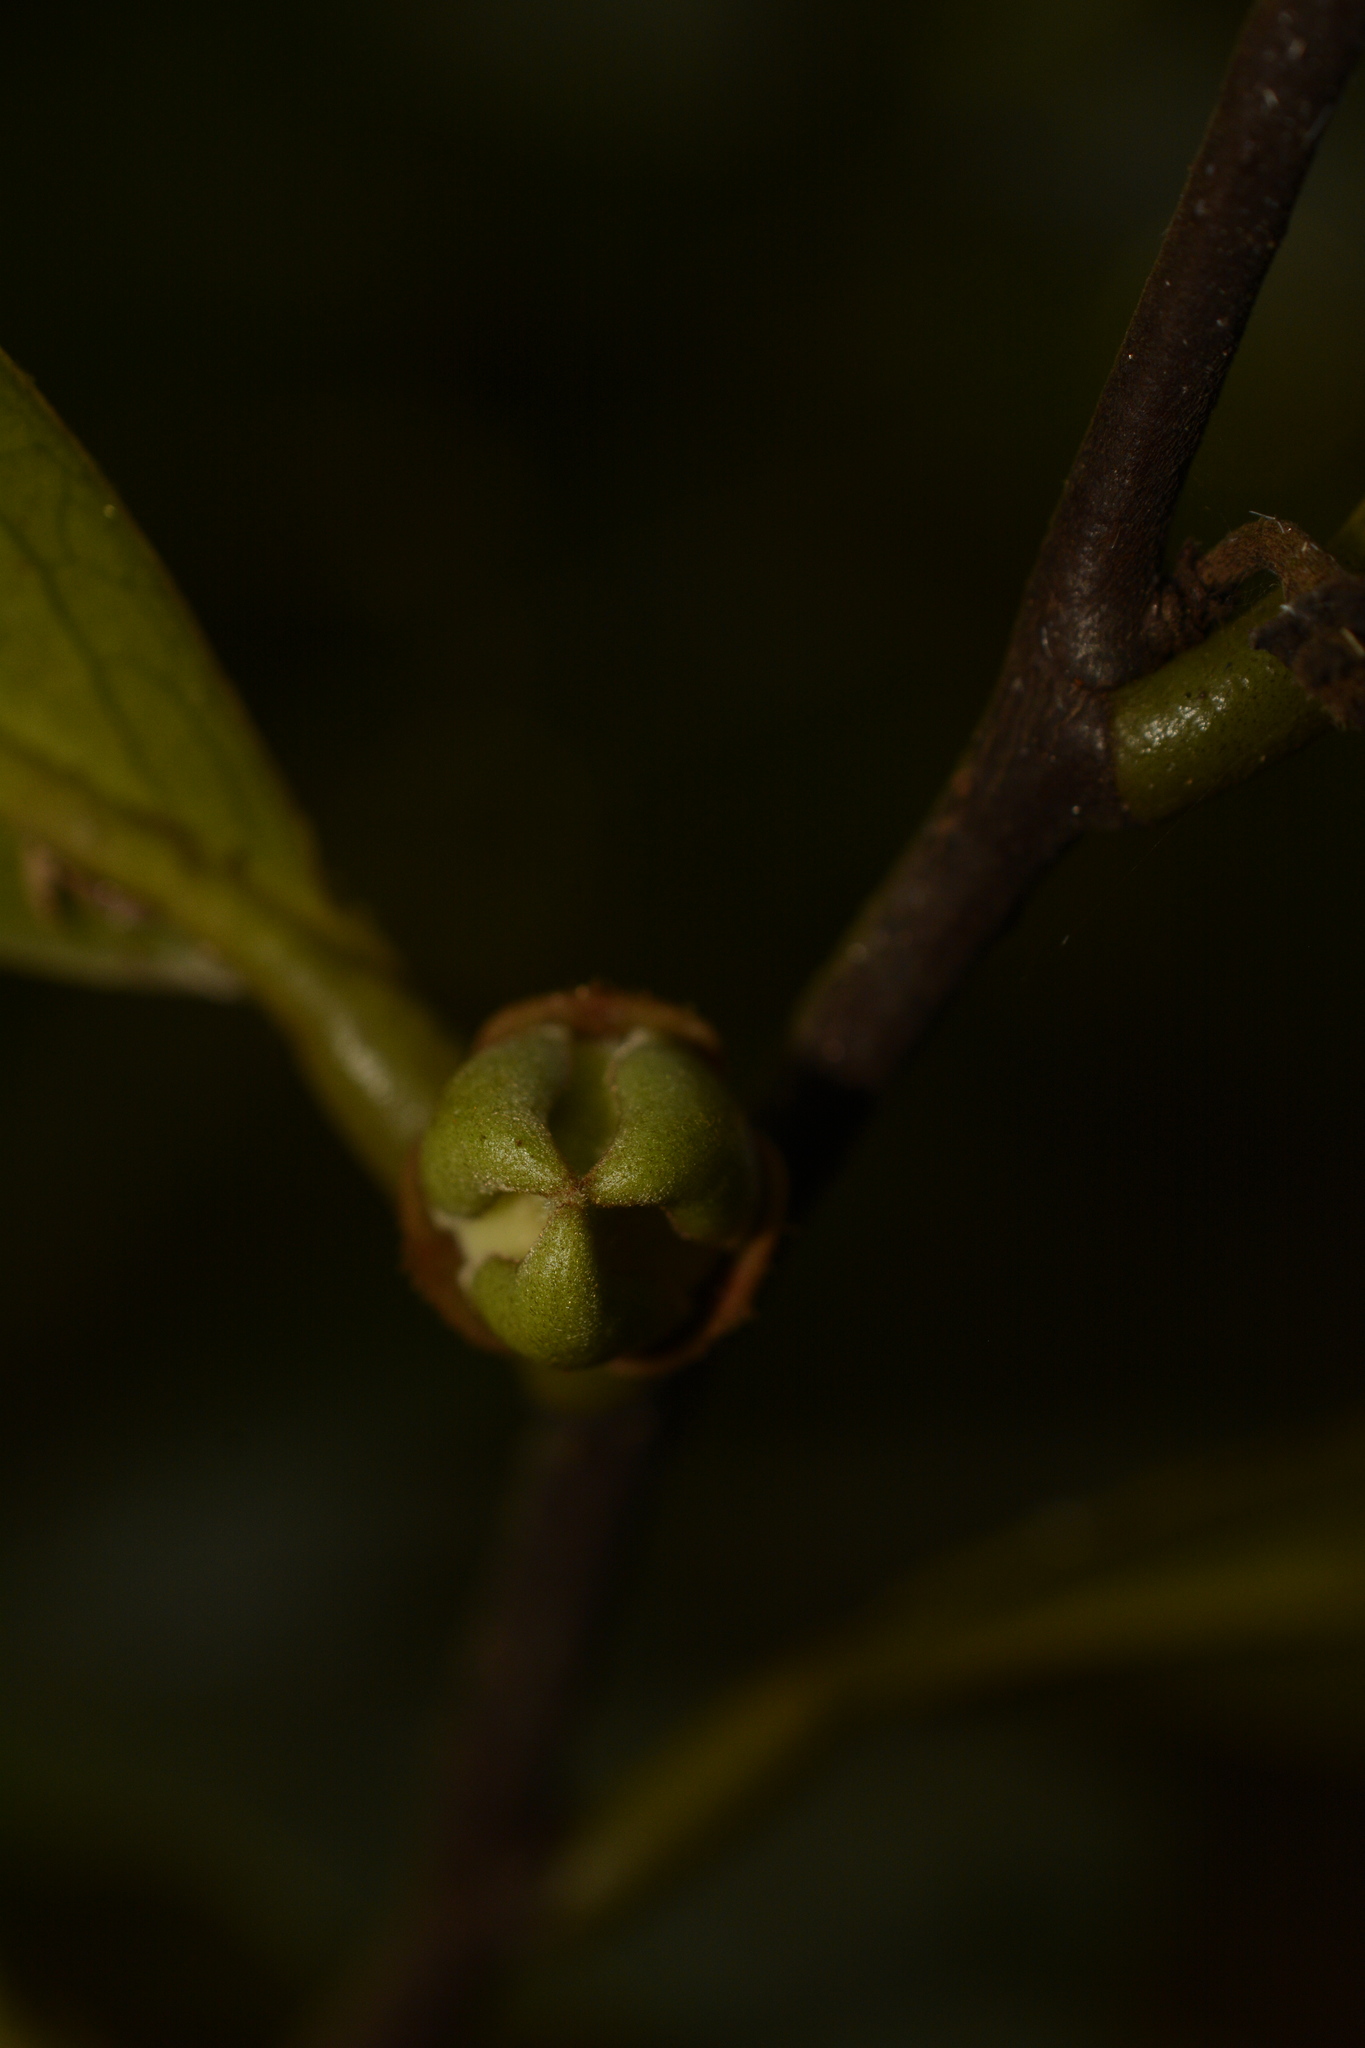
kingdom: Plantae
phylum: Tracheophyta
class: Magnoliopsida
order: Magnoliales
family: Annonaceae
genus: Goniothalamus
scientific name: Goniothalamus cardiopetalus
